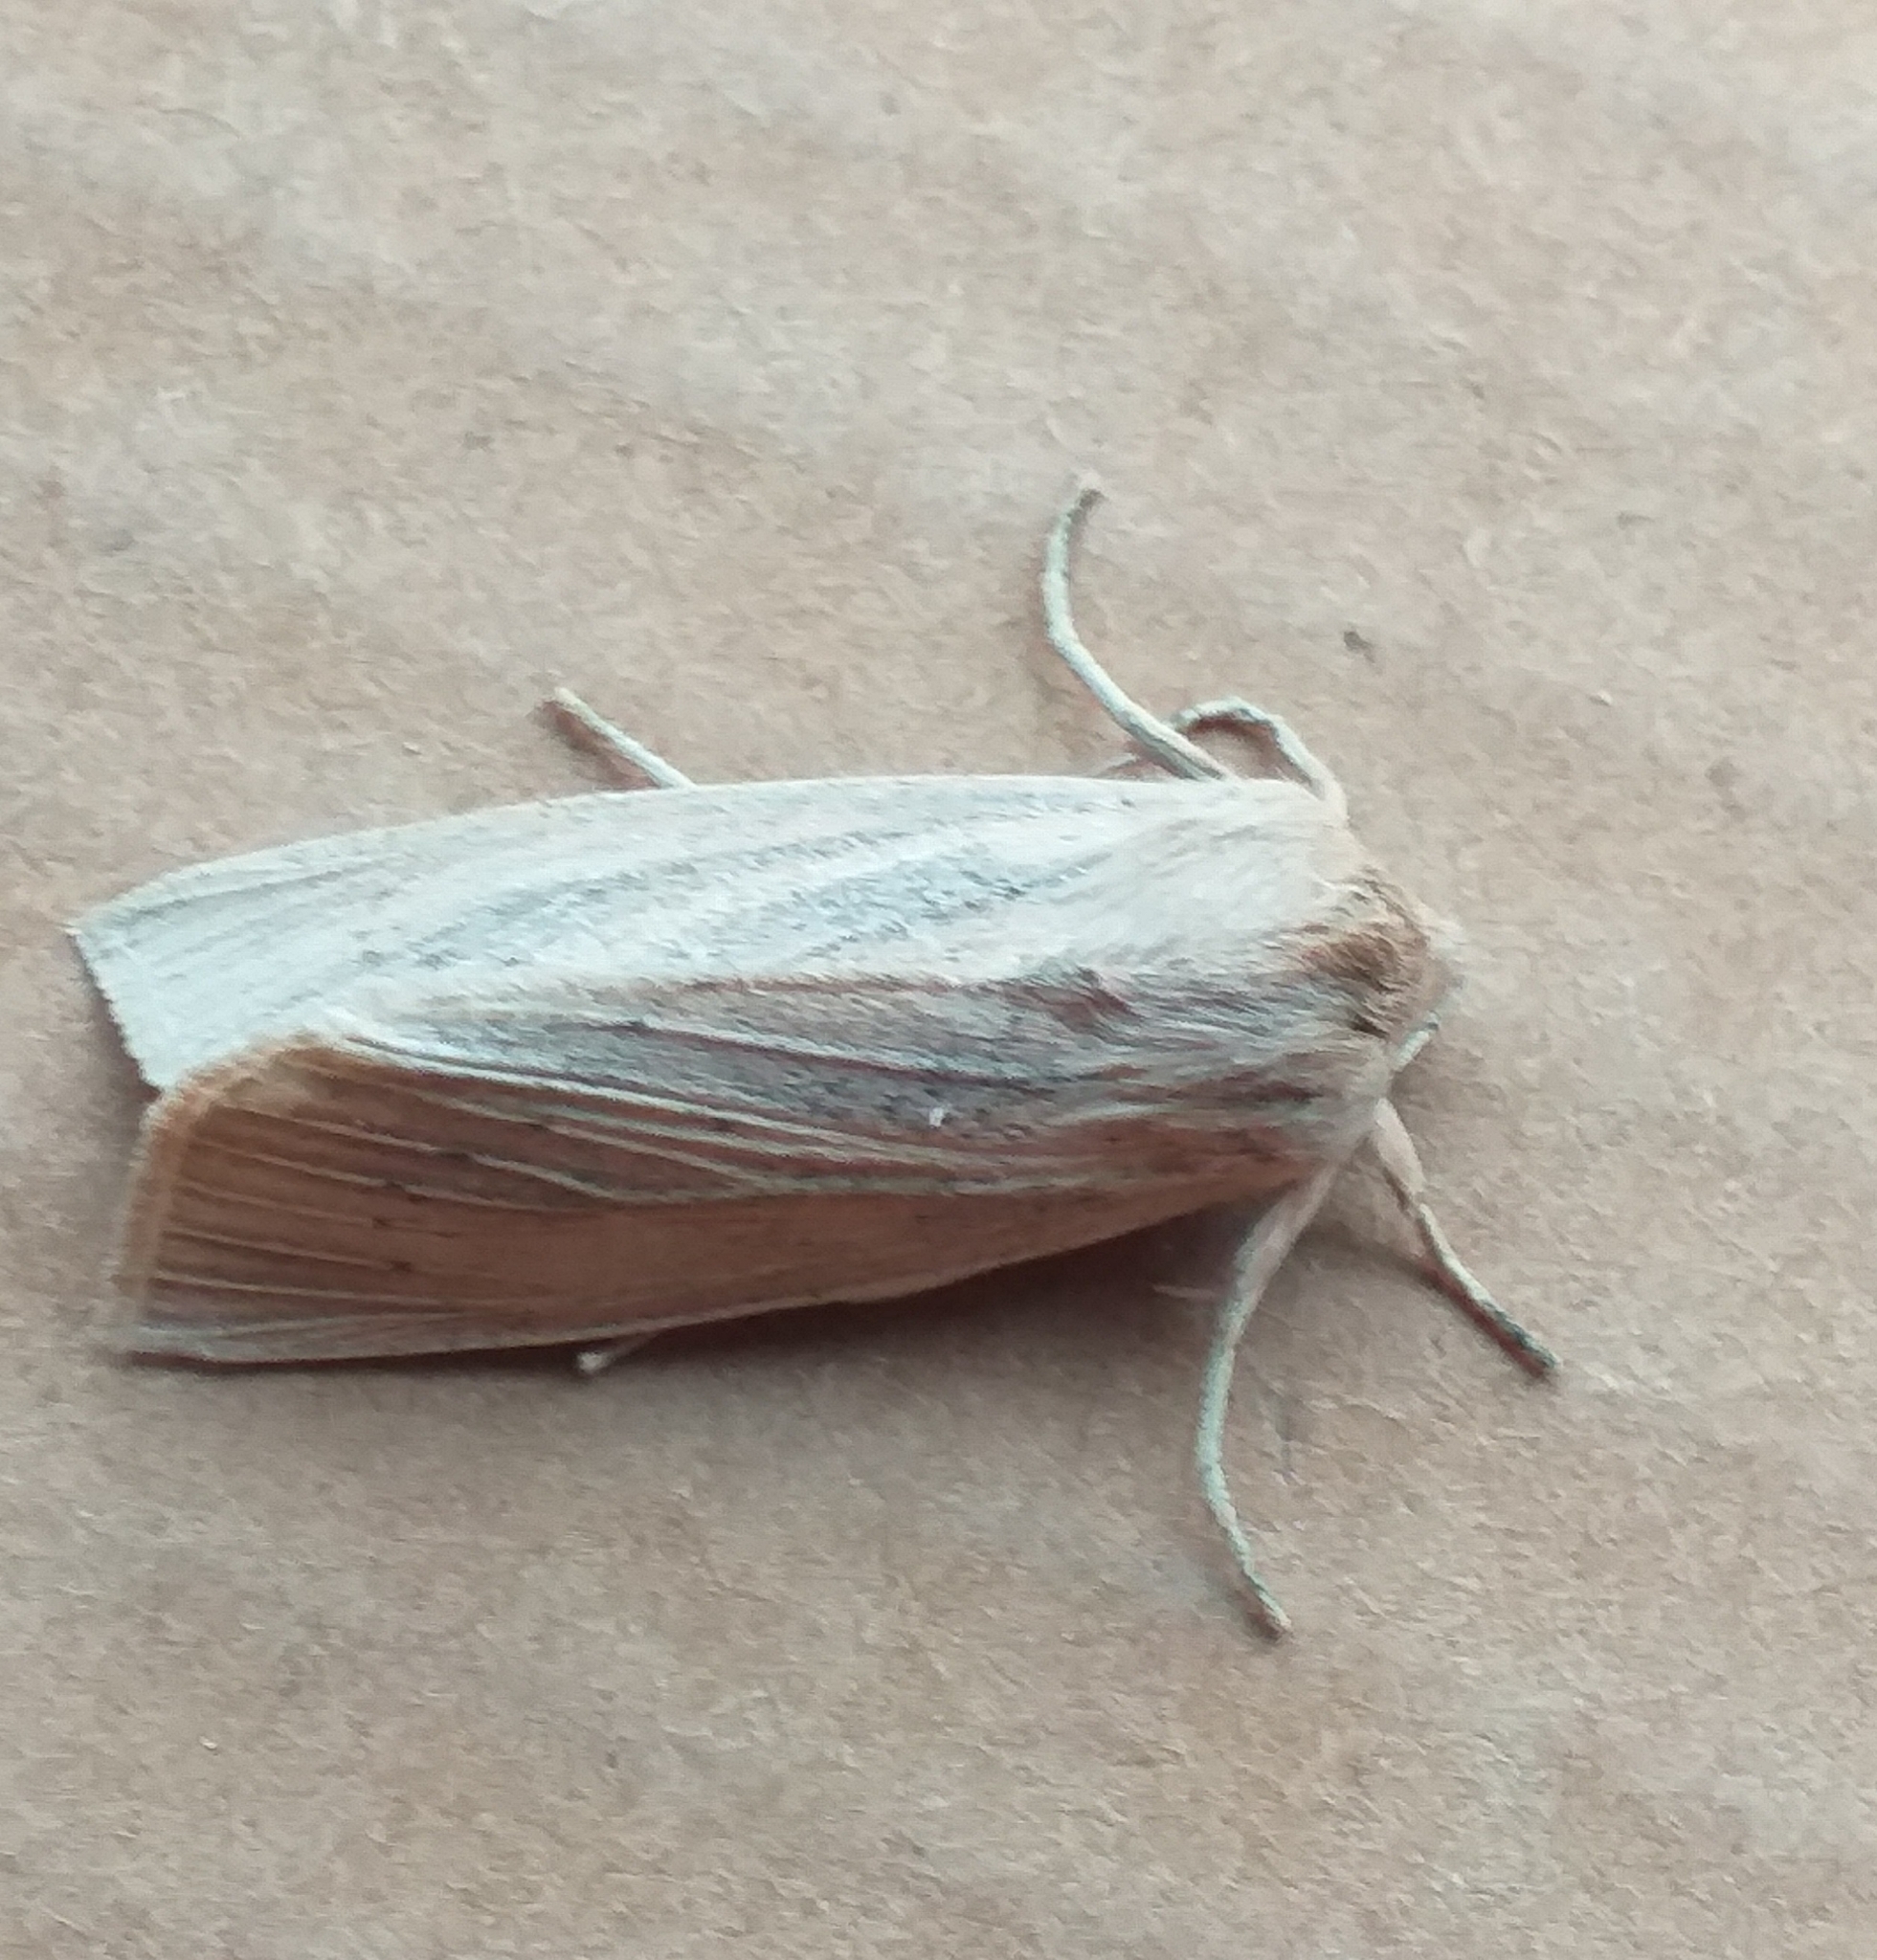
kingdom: Animalia
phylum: Arthropoda
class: Insecta
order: Lepidoptera
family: Noctuidae
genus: Rhizedra
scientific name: Rhizedra lutosa
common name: Large wainscot
